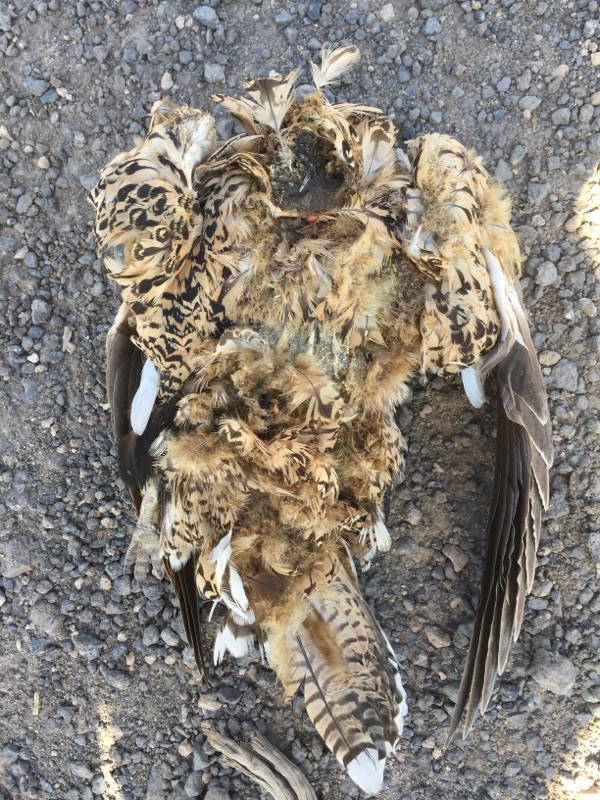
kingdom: Animalia
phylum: Chordata
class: Aves
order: Pteroclidiformes
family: Pteroclididae
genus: Pterocles
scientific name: Pterocles orientalis
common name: Black-bellied sandgrouse
